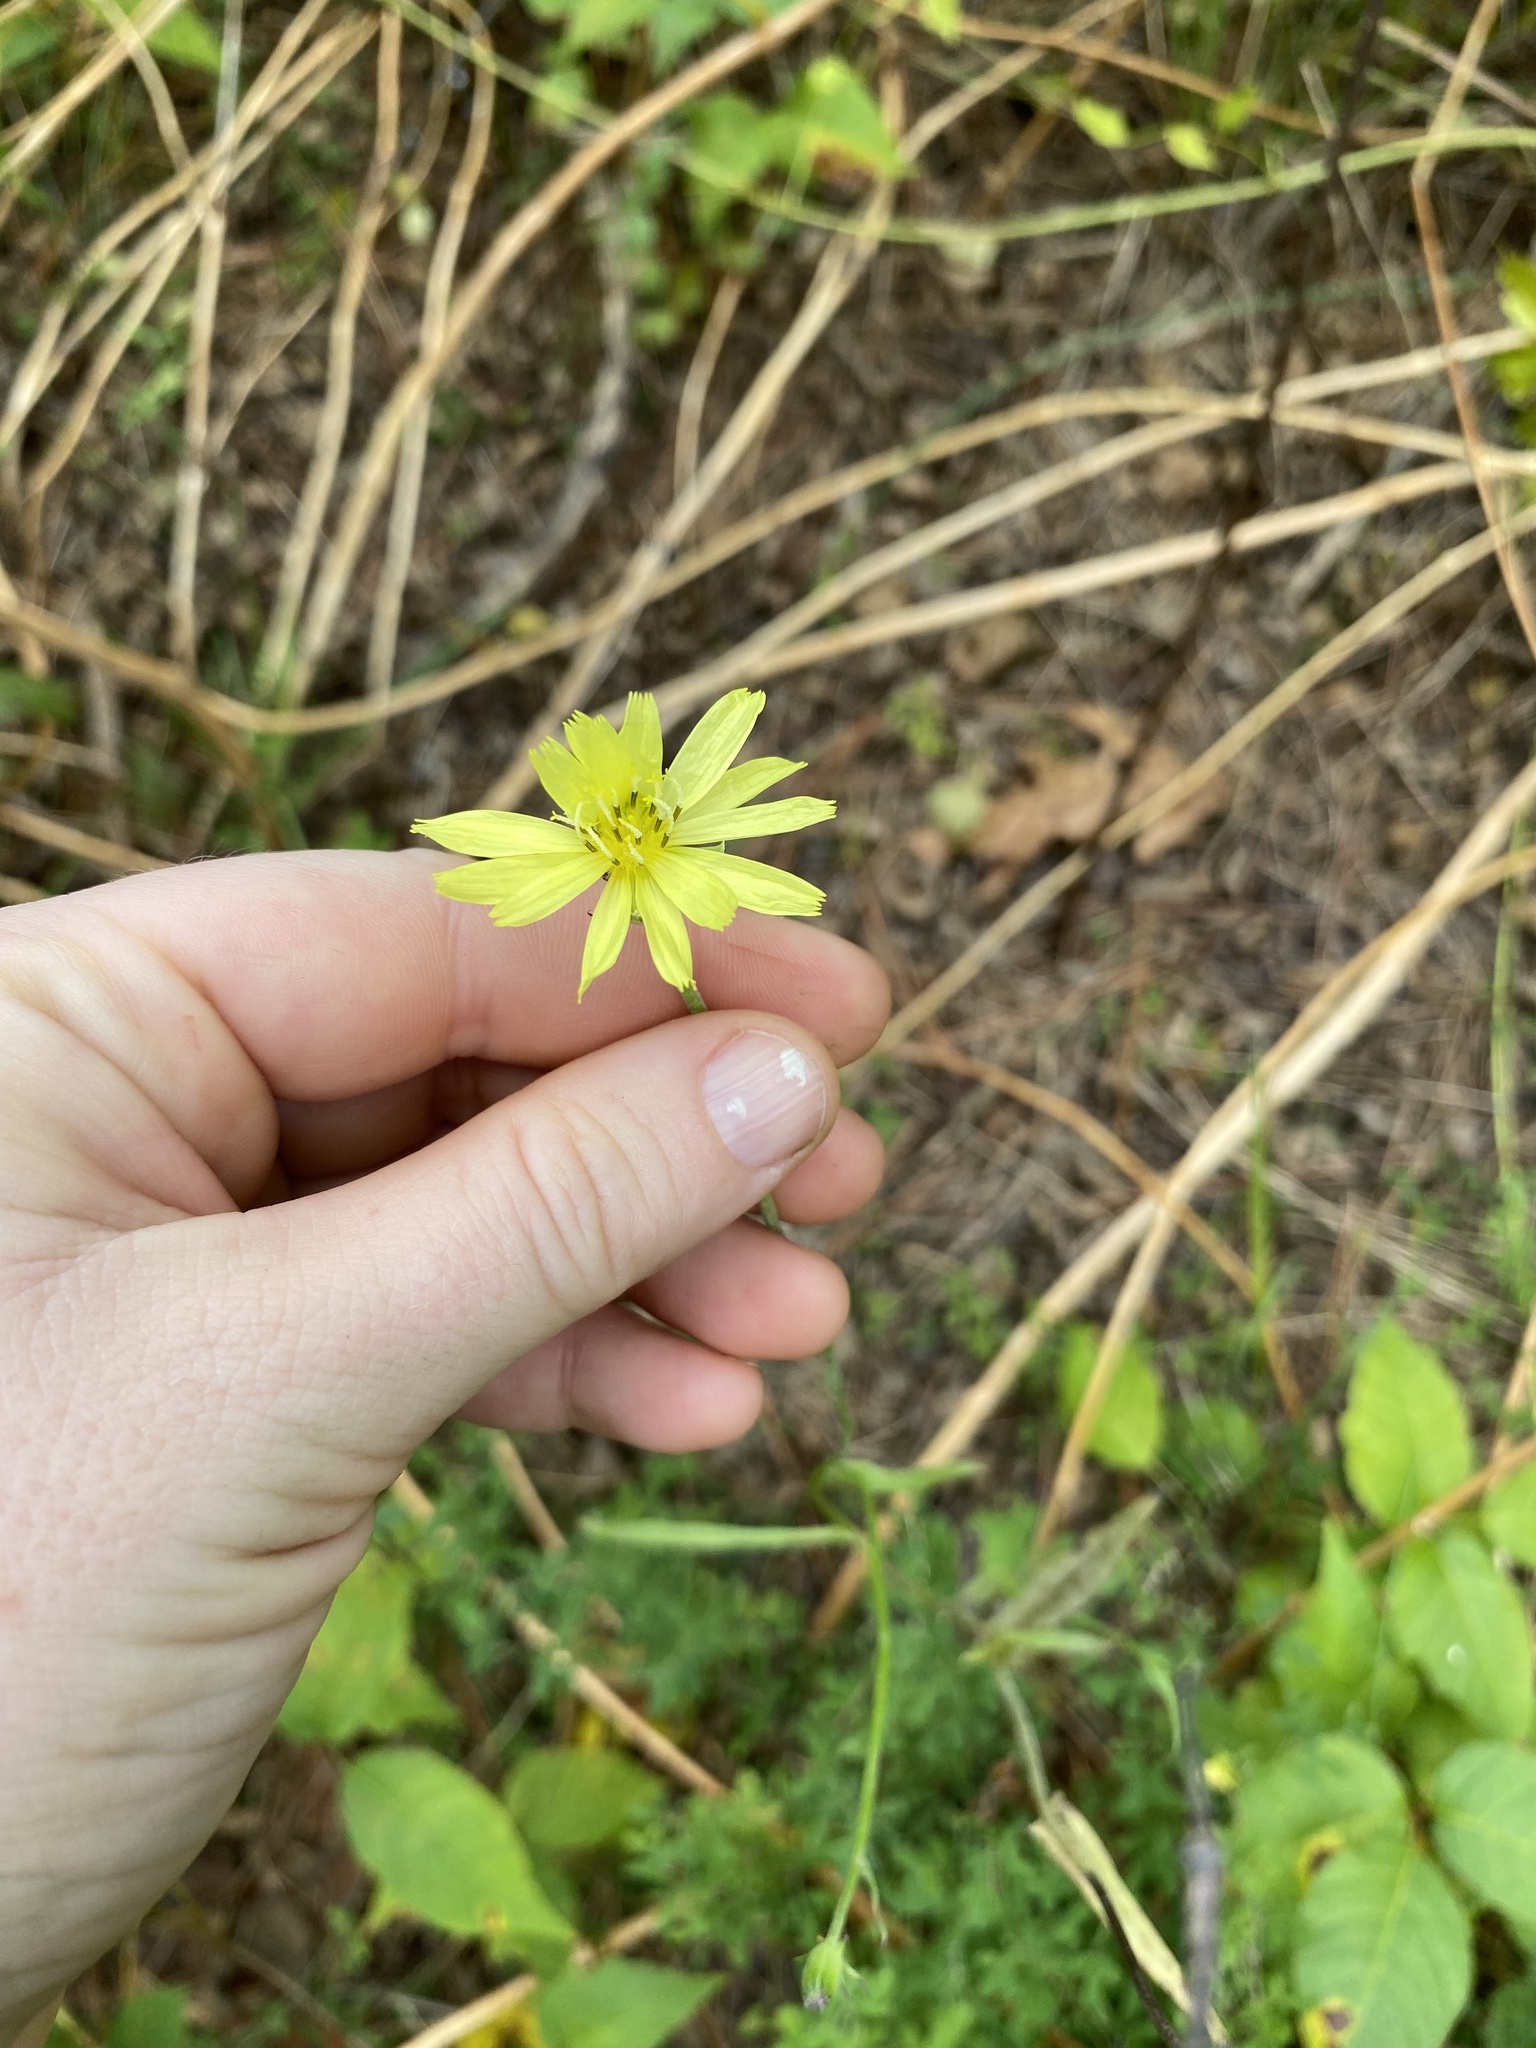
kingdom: Plantae
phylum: Tracheophyta
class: Magnoliopsida
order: Asterales
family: Asteraceae
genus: Pyrrhopappus
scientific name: Pyrrhopappus carolinianus
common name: Carolina desert-chicory
